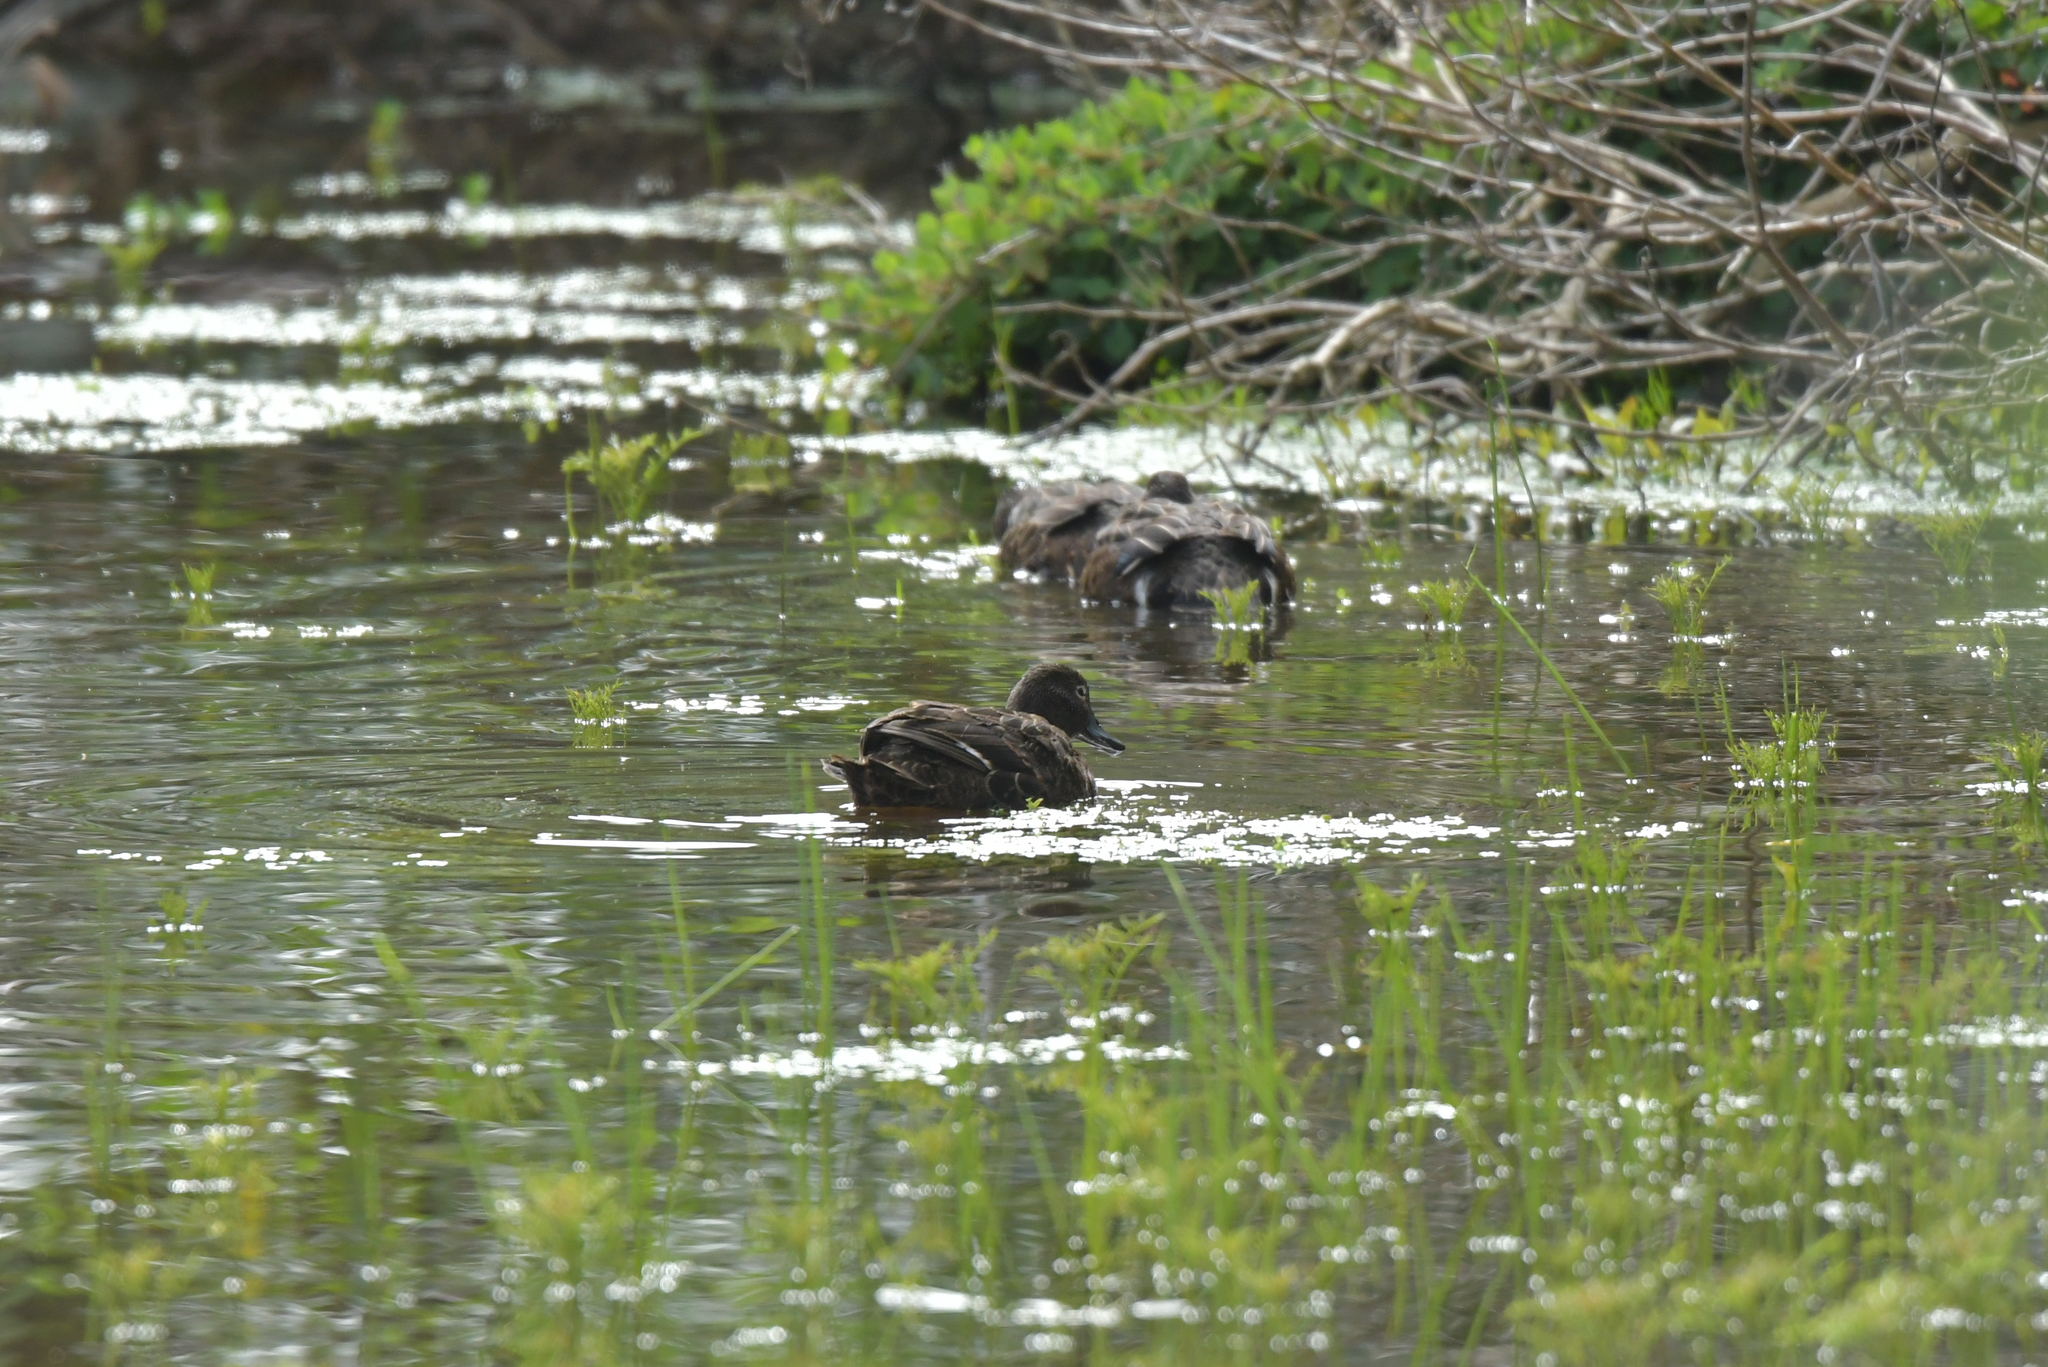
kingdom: Animalia
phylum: Chordata
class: Aves
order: Anseriformes
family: Anatidae
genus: Anas
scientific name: Anas chlorotis
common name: Brown teal
